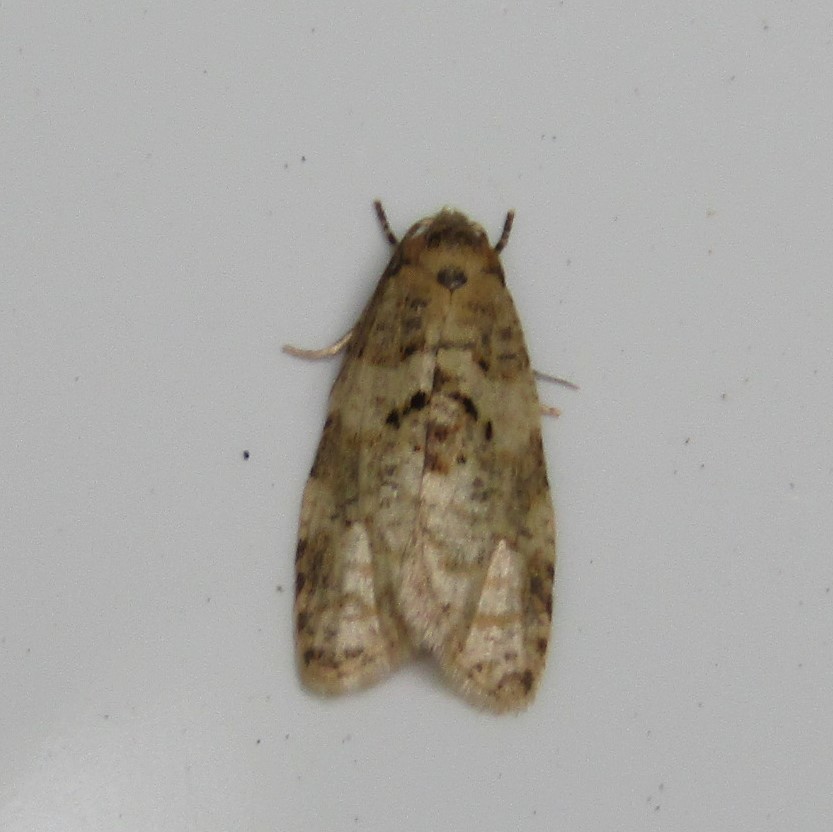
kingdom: Animalia
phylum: Arthropoda
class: Insecta
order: Lepidoptera
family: Tortricidae
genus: Dipterina
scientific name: Dipterina imbriferana
